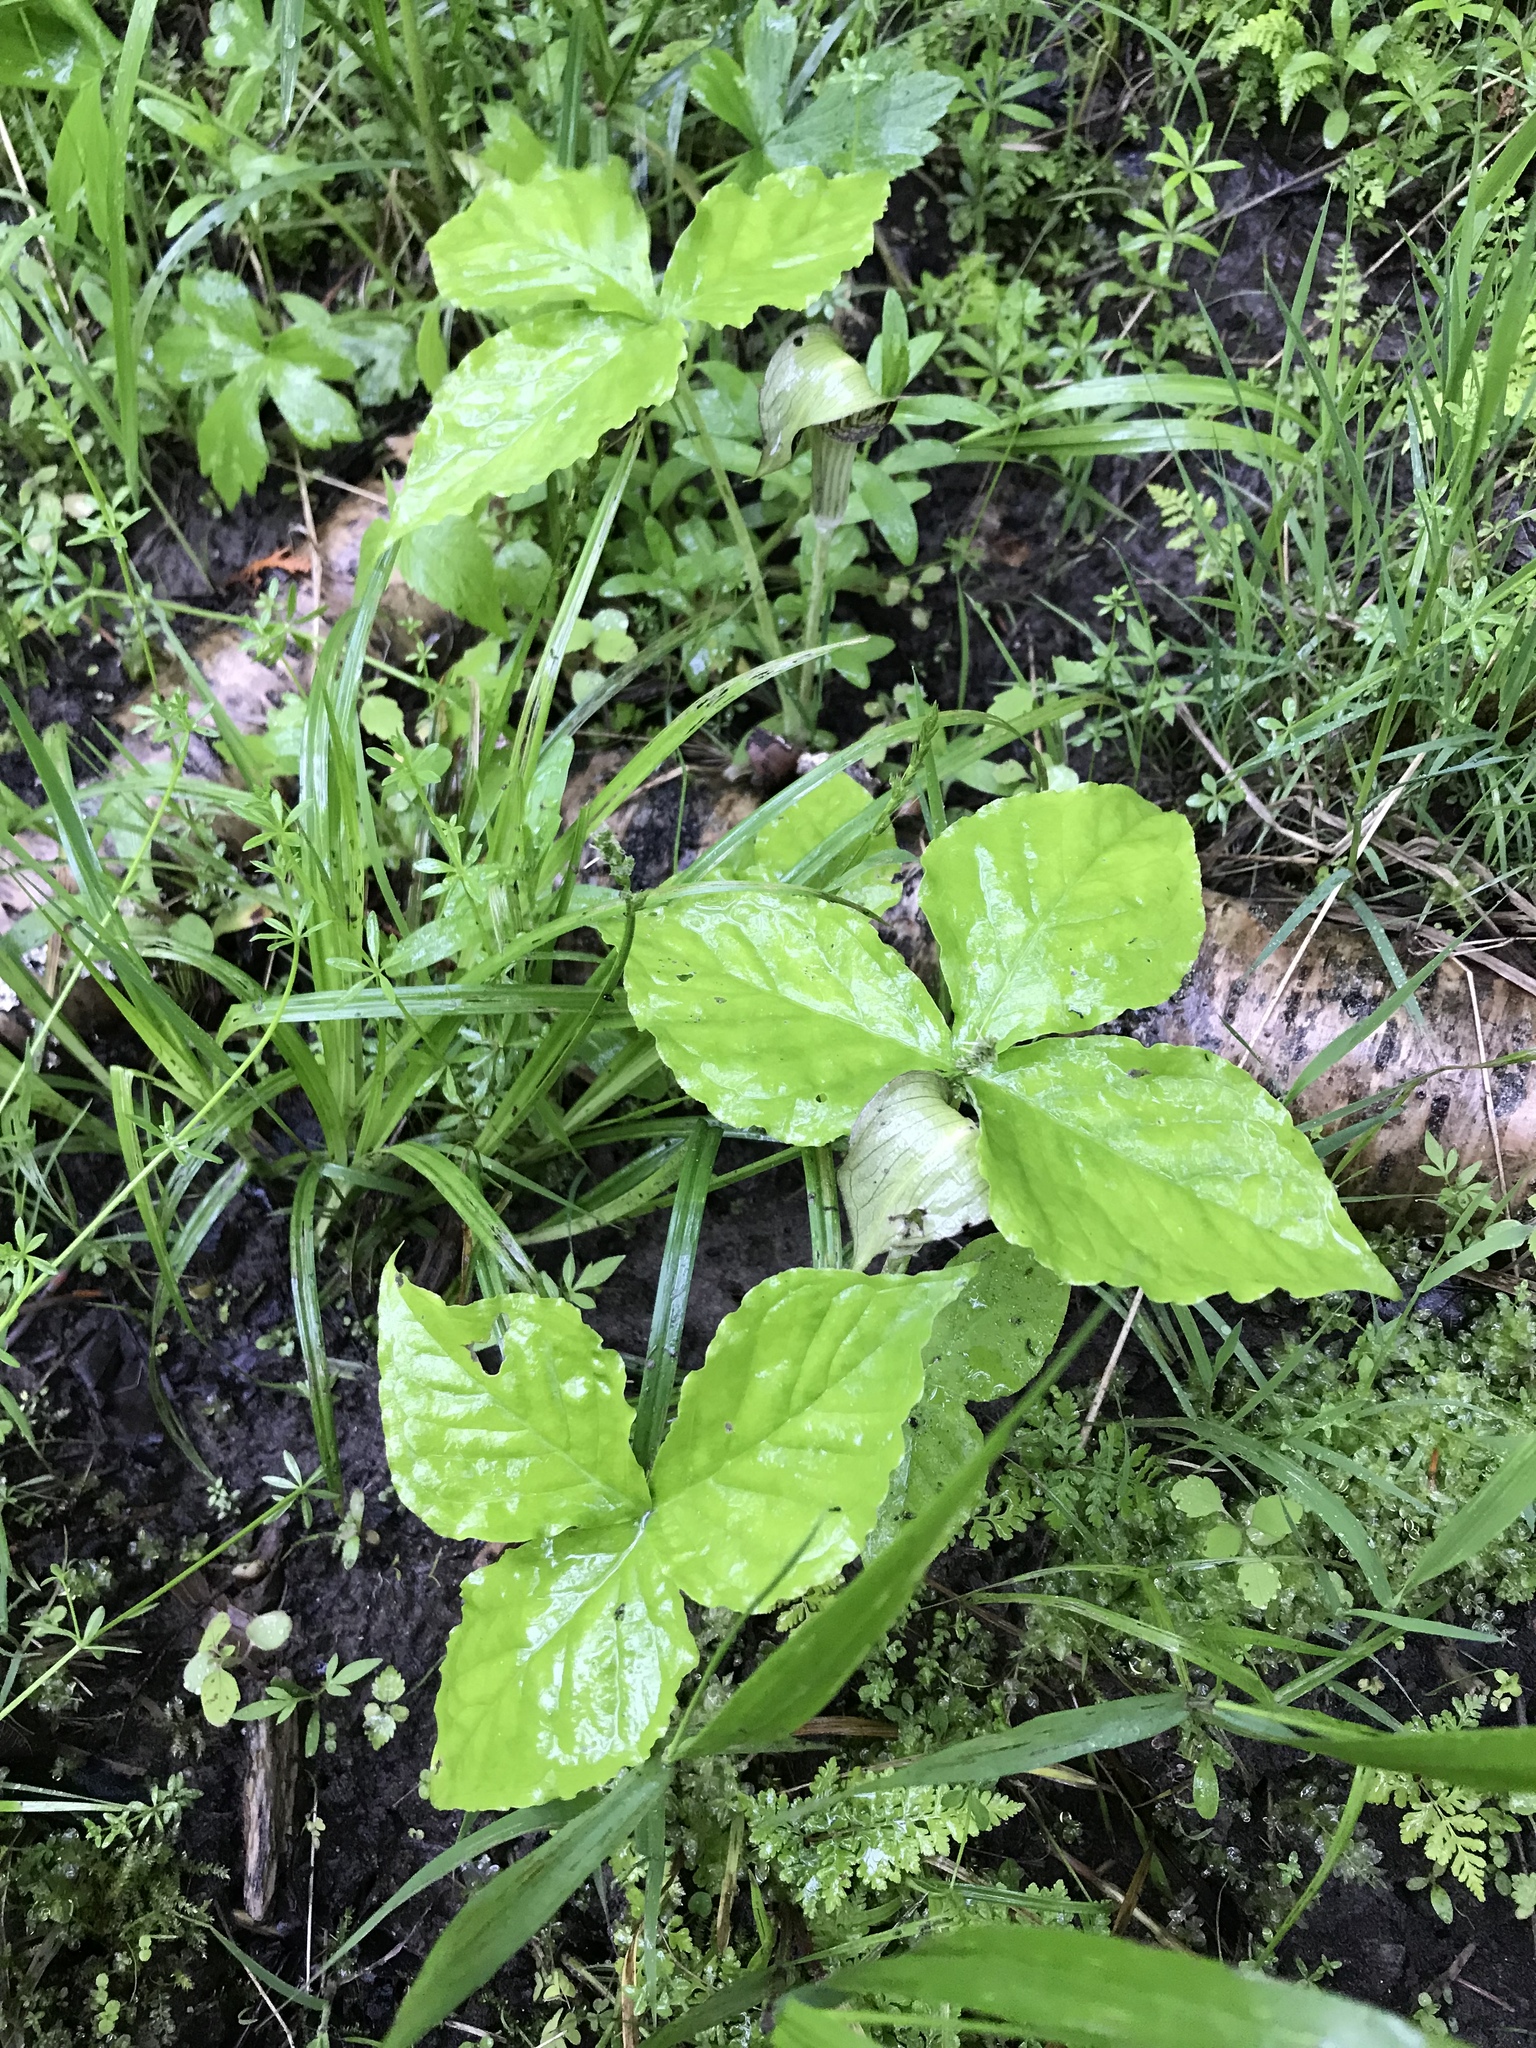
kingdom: Plantae
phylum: Tracheophyta
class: Liliopsida
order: Alismatales
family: Araceae
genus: Arisaema
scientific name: Arisaema triphyllum
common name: Jack-in-the-pulpit
